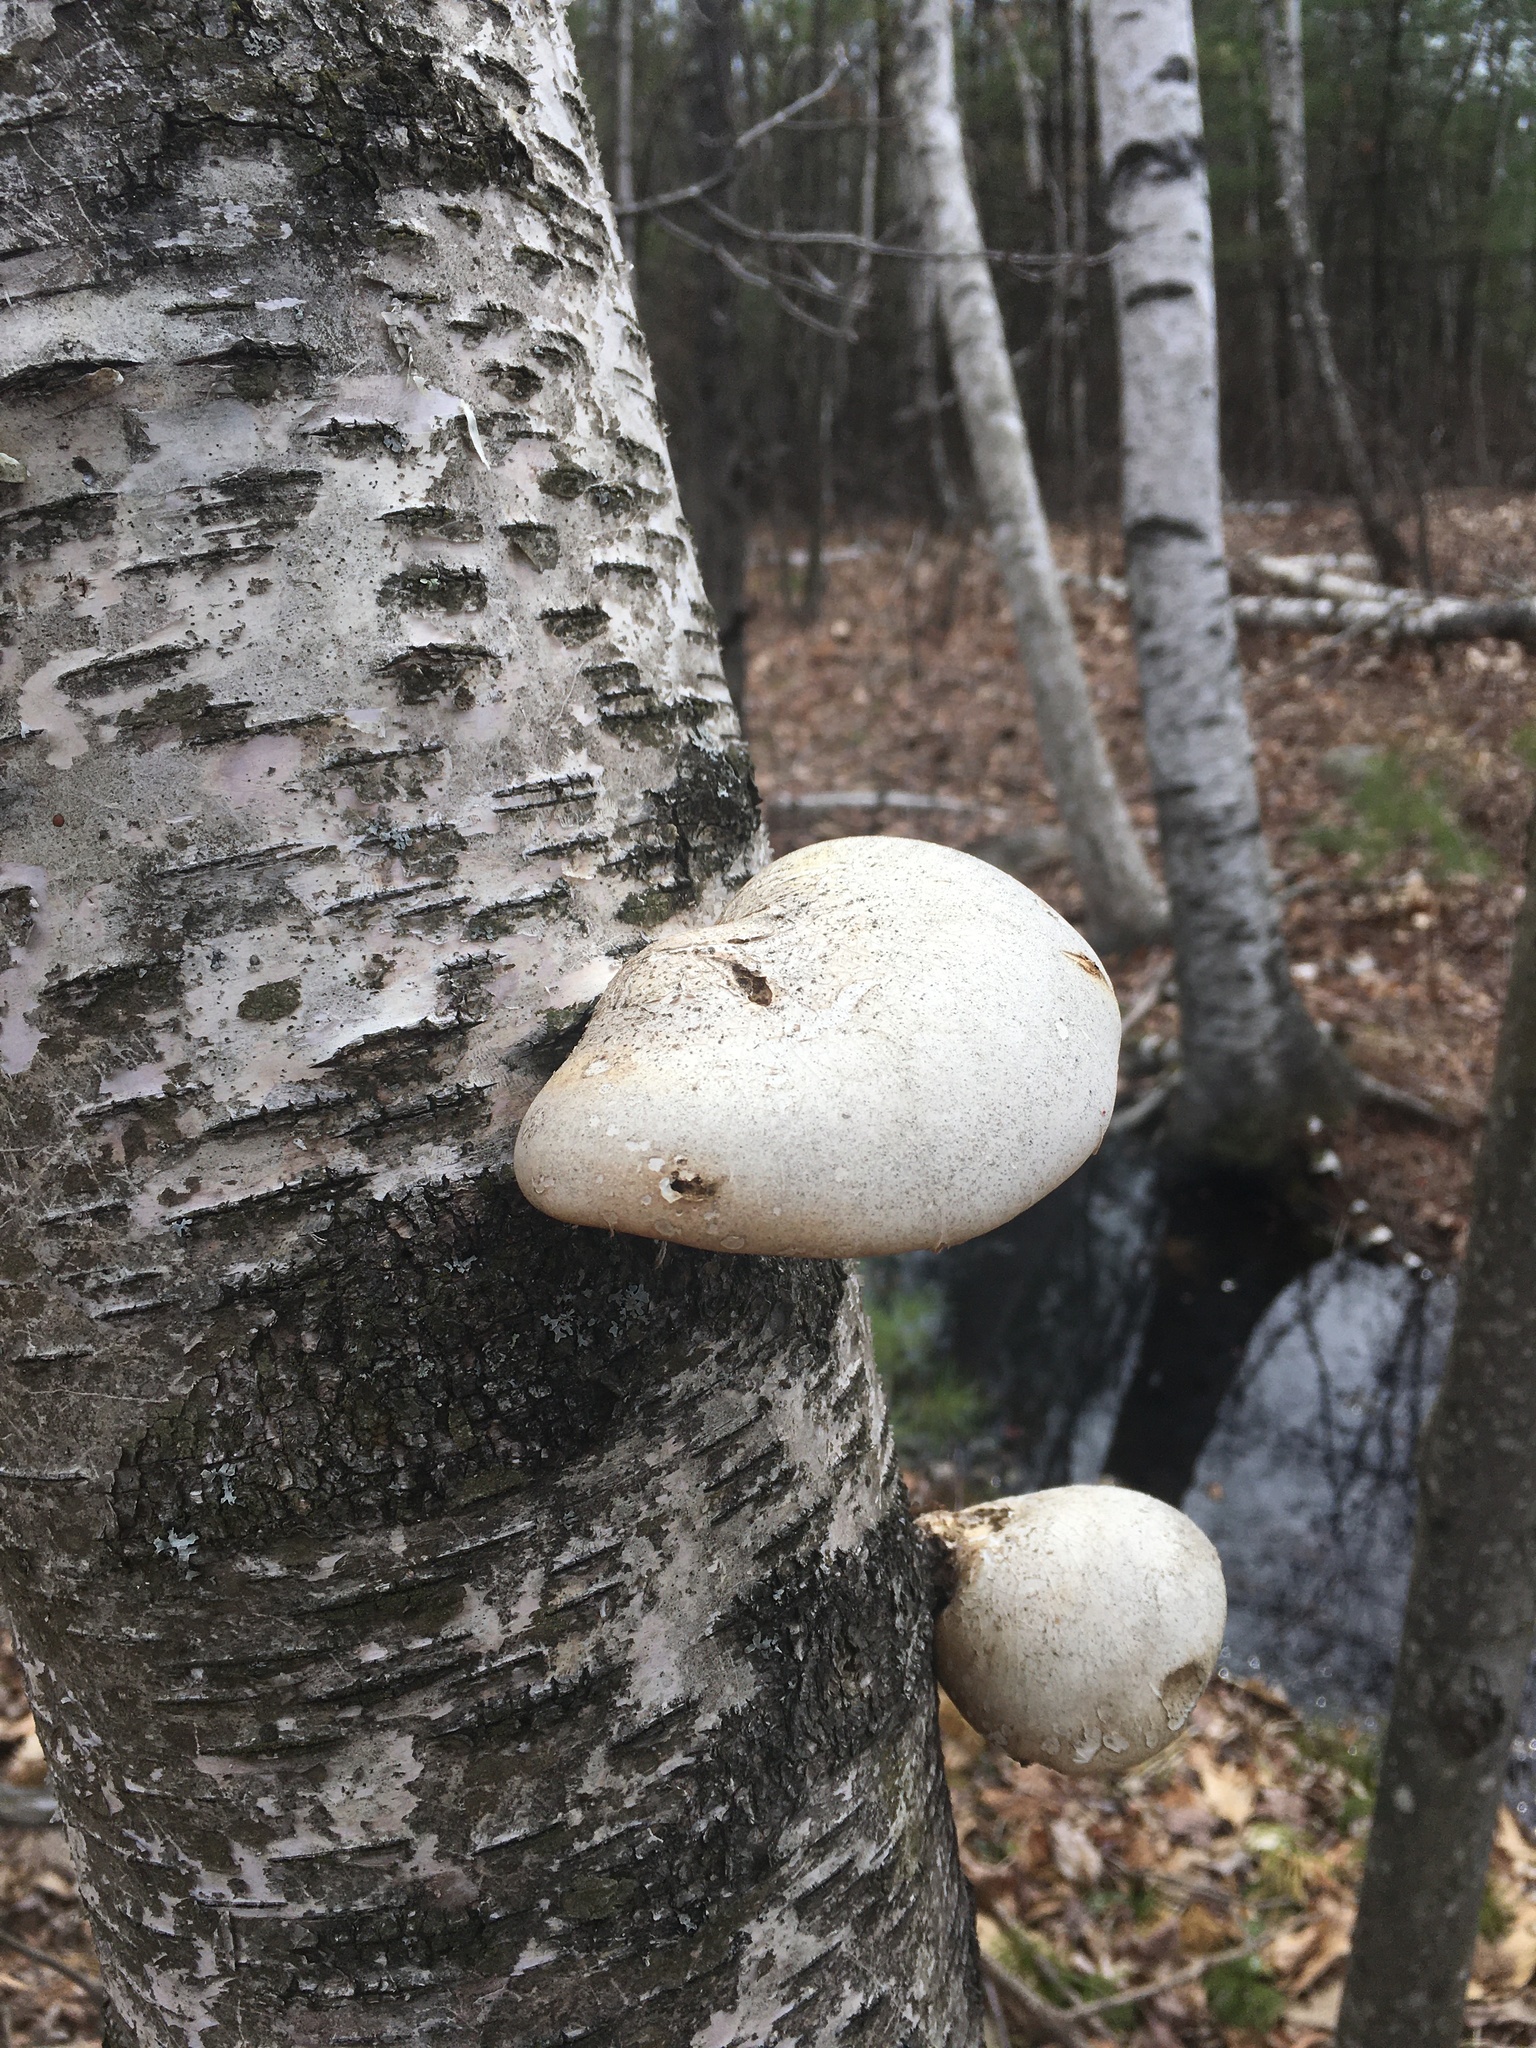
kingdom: Fungi
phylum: Basidiomycota
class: Agaricomycetes
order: Polyporales
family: Fomitopsidaceae
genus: Fomitopsis
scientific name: Fomitopsis betulina
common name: Birch polypore
